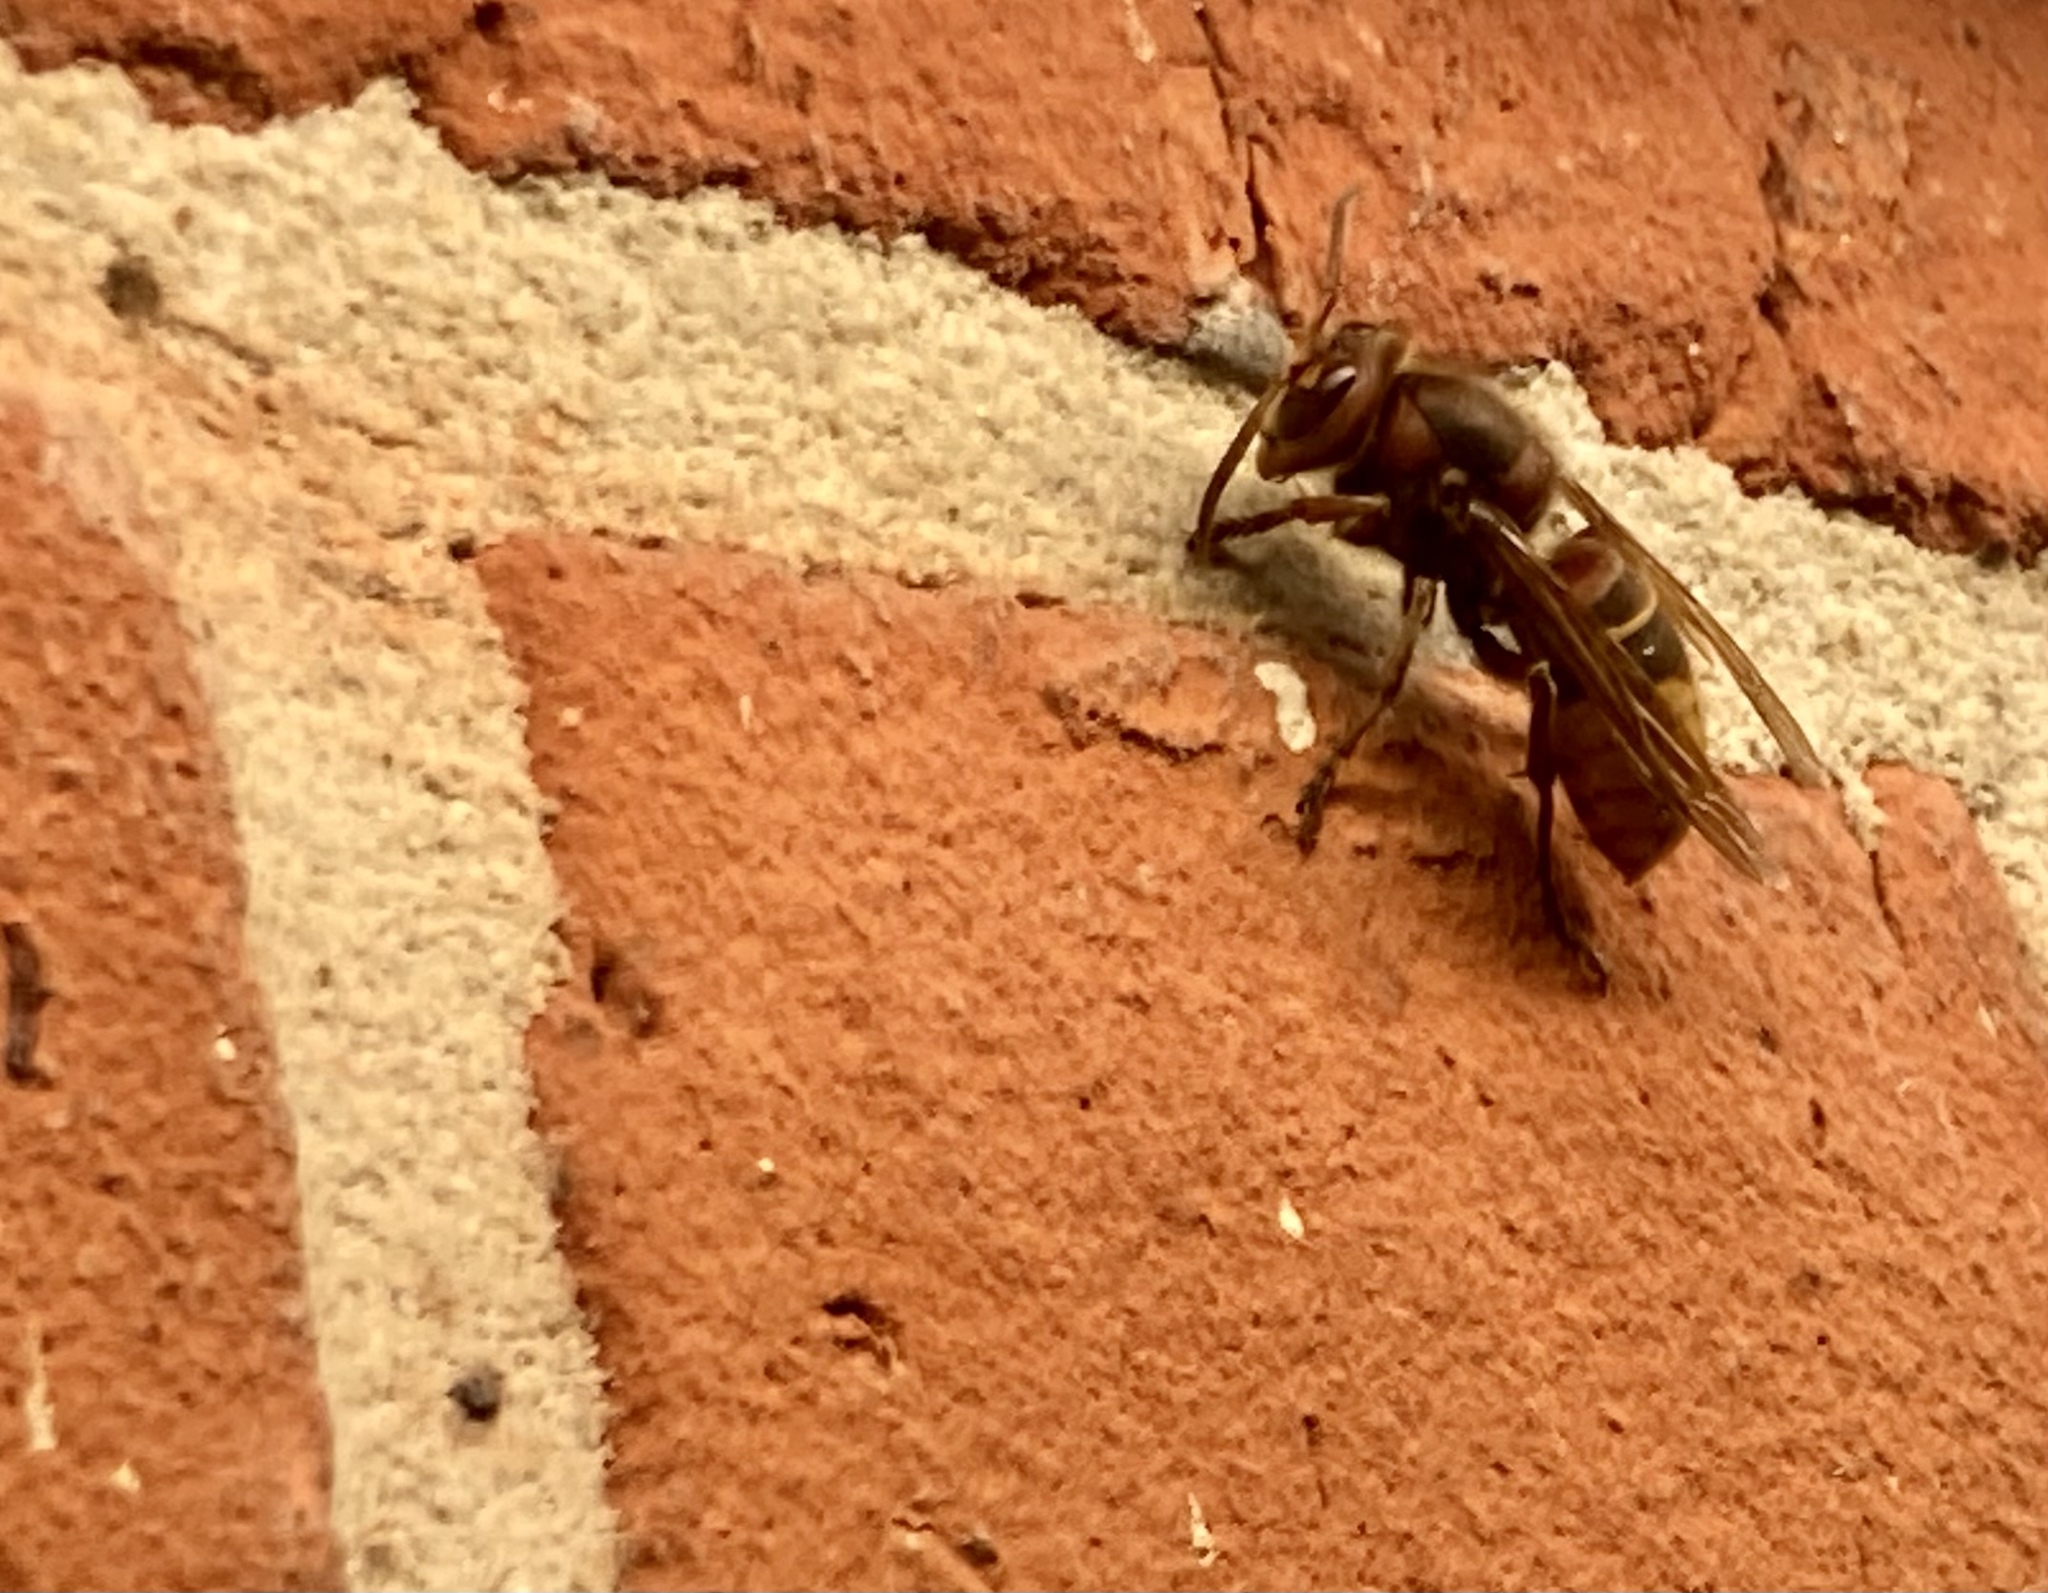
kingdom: Animalia
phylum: Arthropoda
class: Insecta
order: Hymenoptera
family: Vespidae
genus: Vespa
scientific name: Vespa crabro
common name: Hornet
